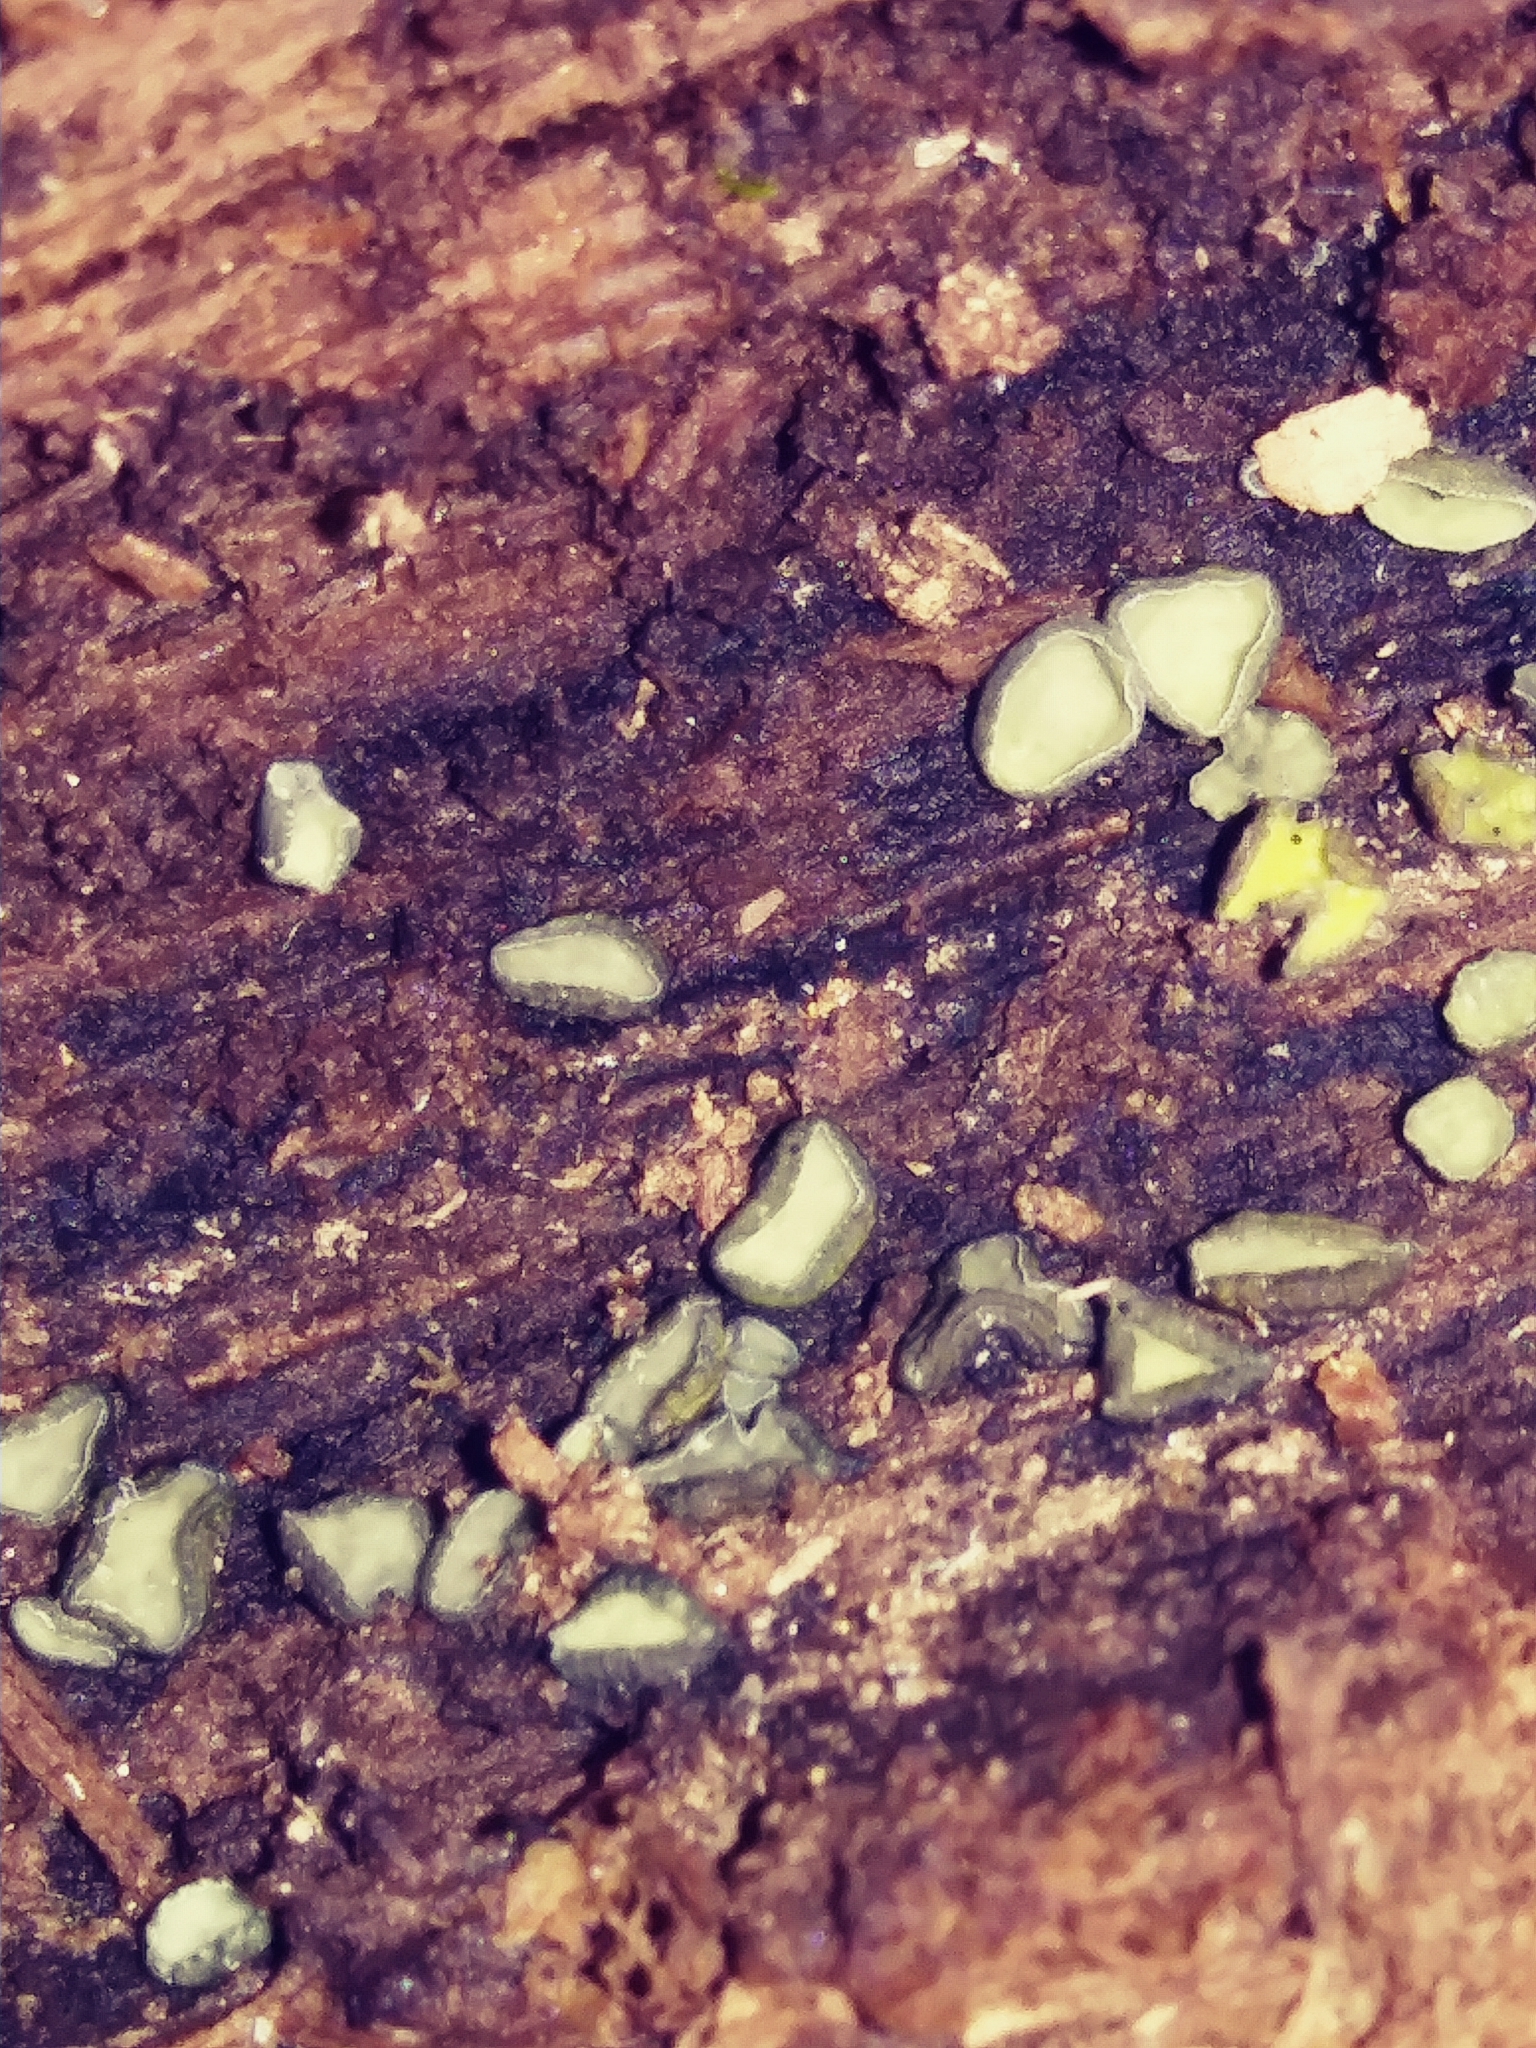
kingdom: Fungi
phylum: Ascomycota
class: Leotiomycetes
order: Helotiales
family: Chlorospleniaceae
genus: Chlorosplenium
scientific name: Chlorosplenium chlora
